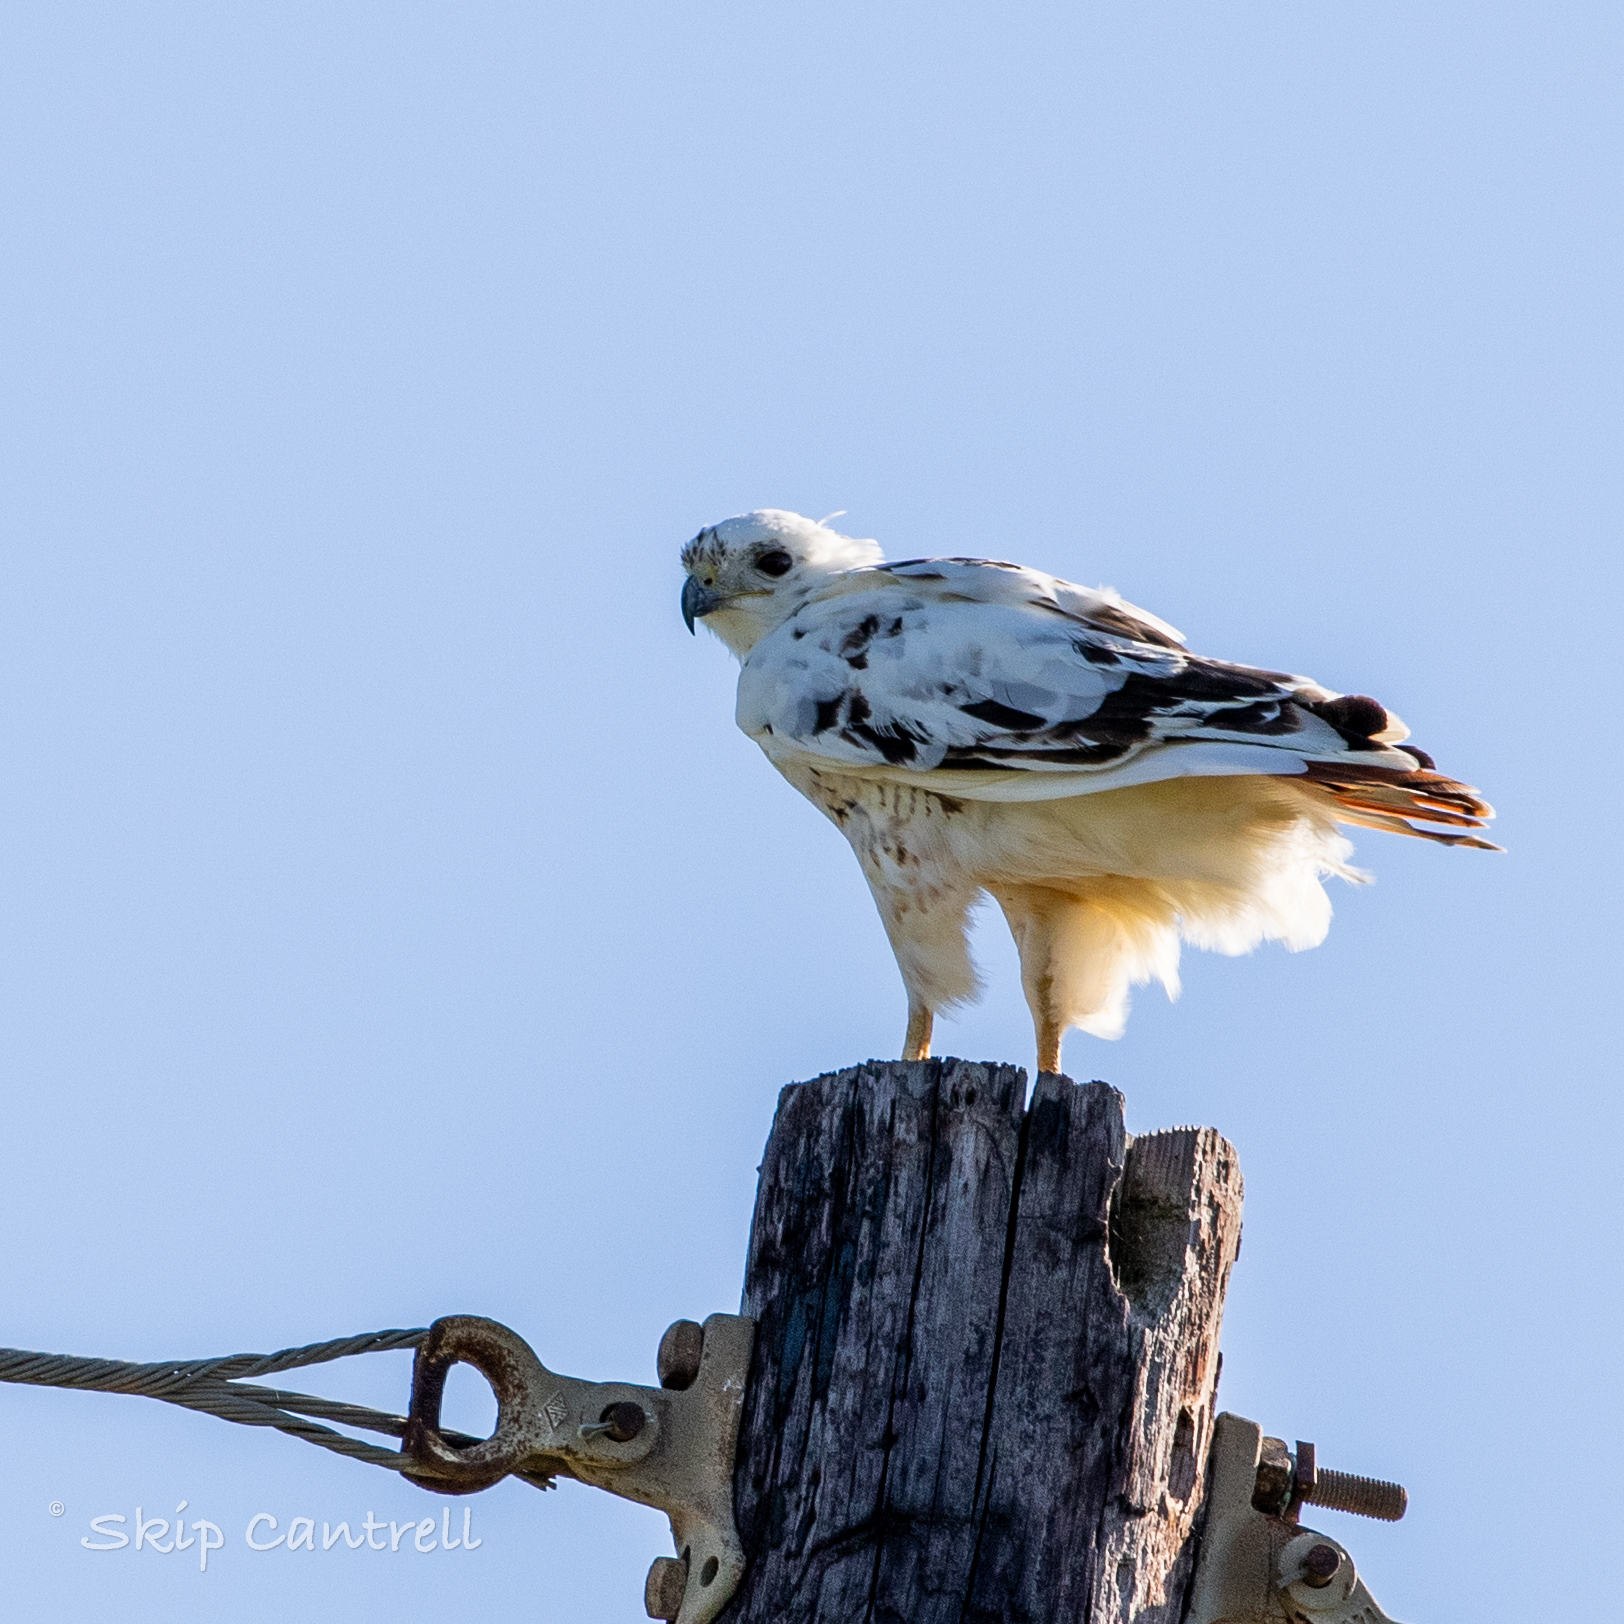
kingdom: Animalia
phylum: Chordata
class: Aves
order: Accipitriformes
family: Accipitridae
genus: Buteo
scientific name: Buteo jamaicensis
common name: Red-tailed hawk
